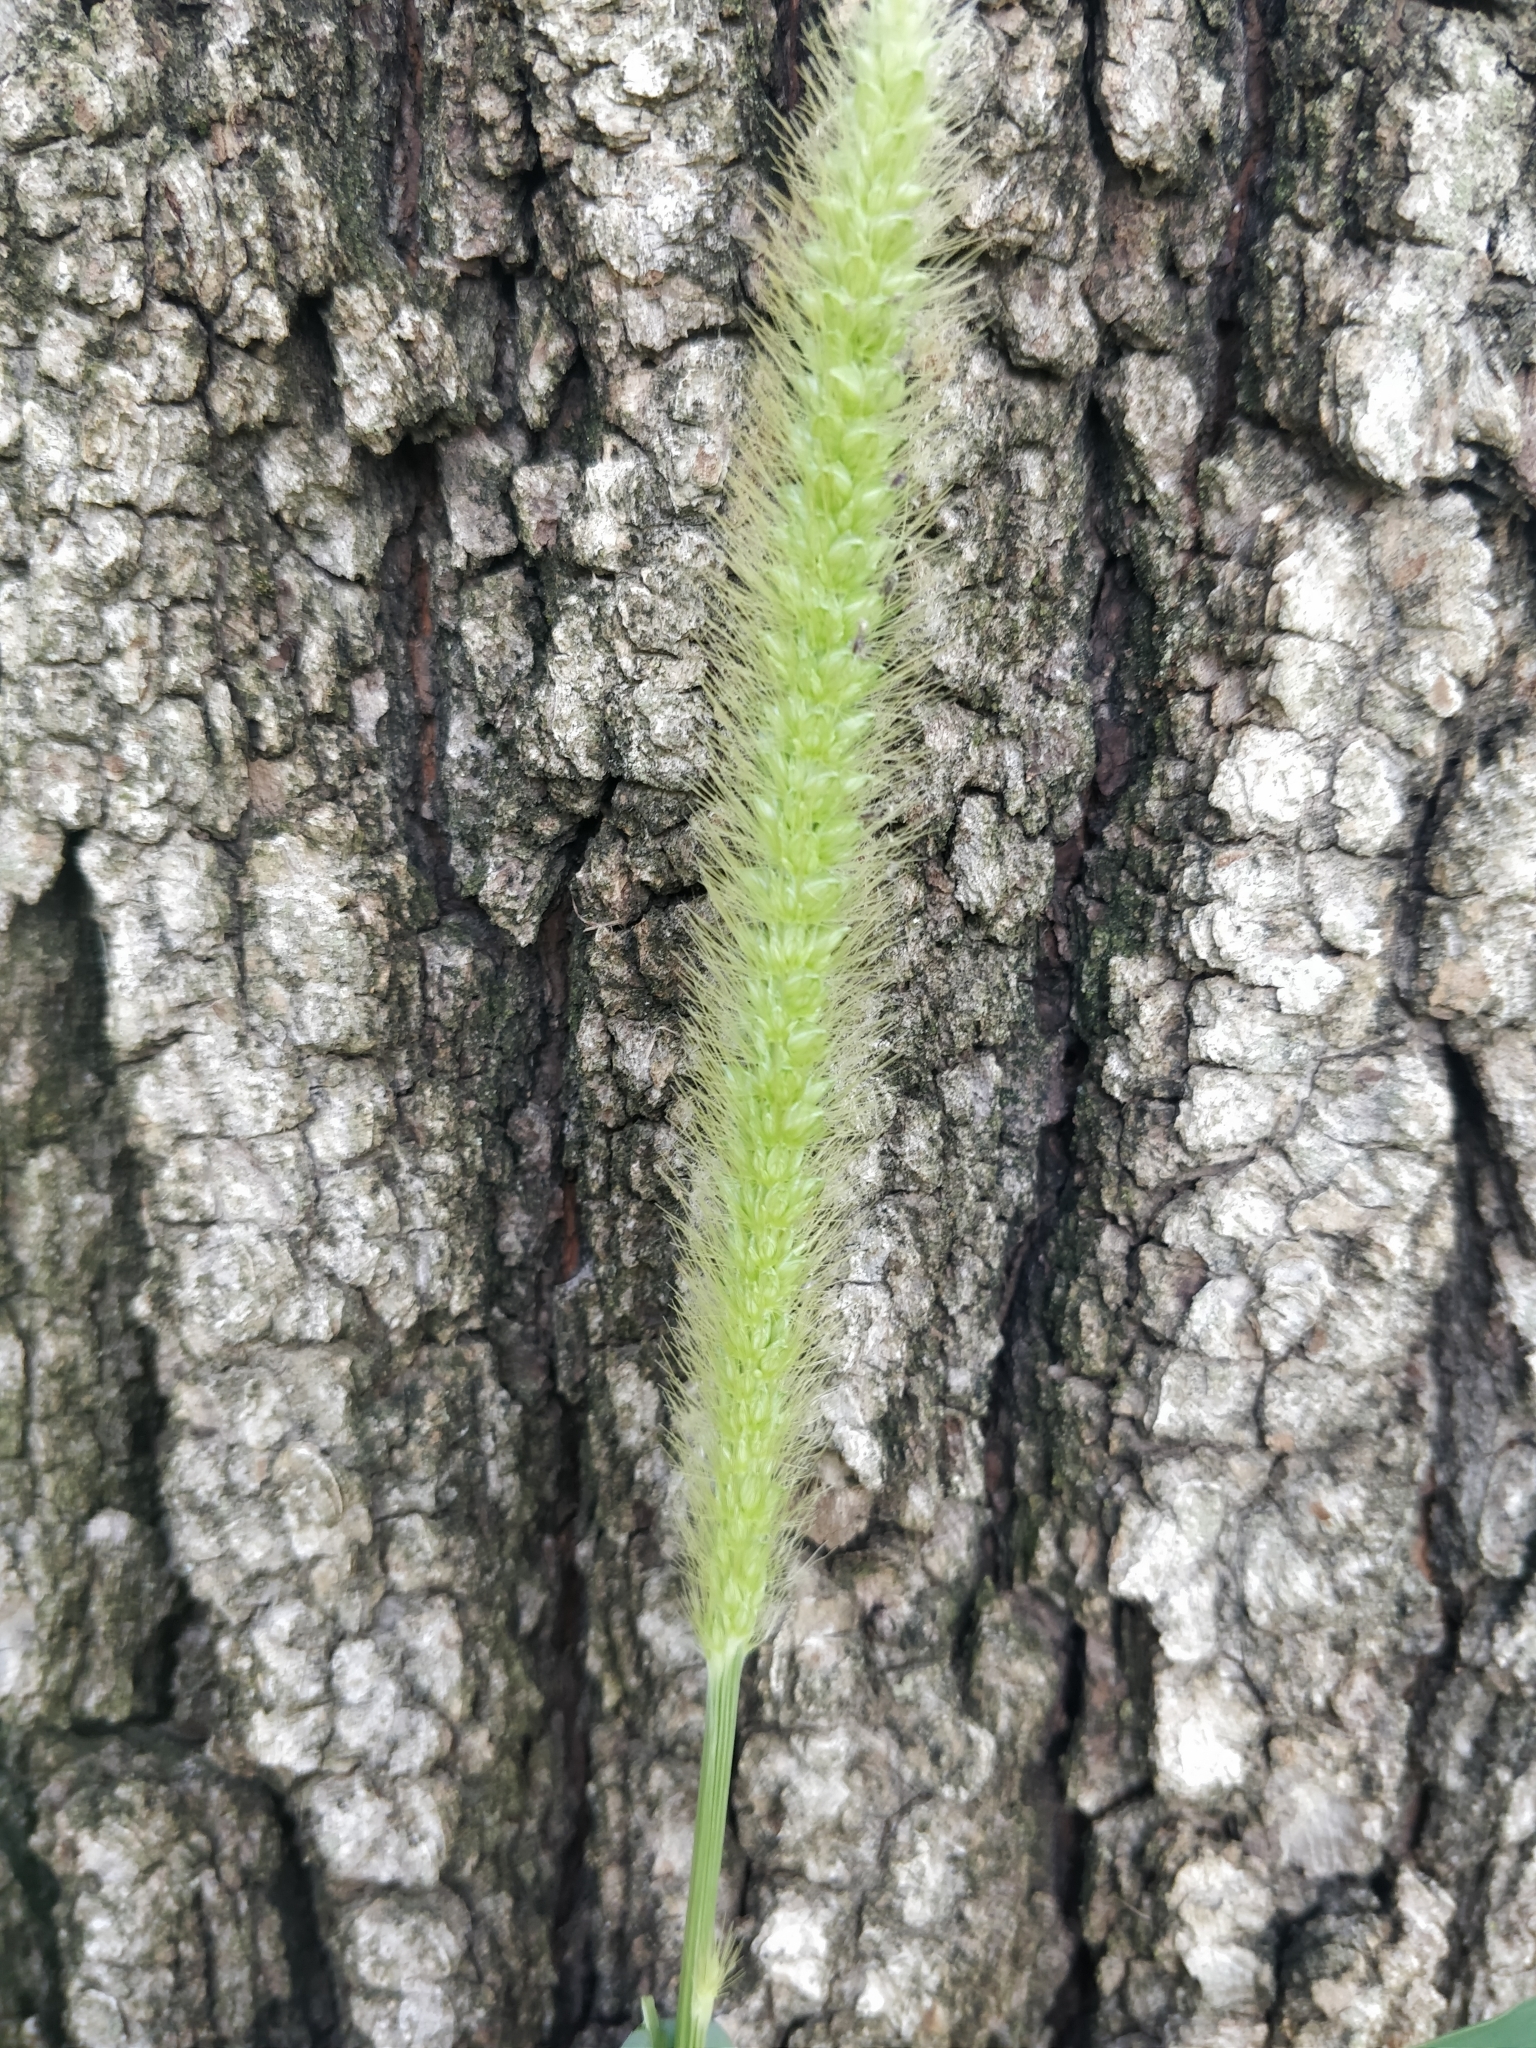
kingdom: Plantae
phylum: Tracheophyta
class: Liliopsida
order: Poales
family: Poaceae
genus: Setaria
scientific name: Setaria pumila
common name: Yellow bristle-grass
